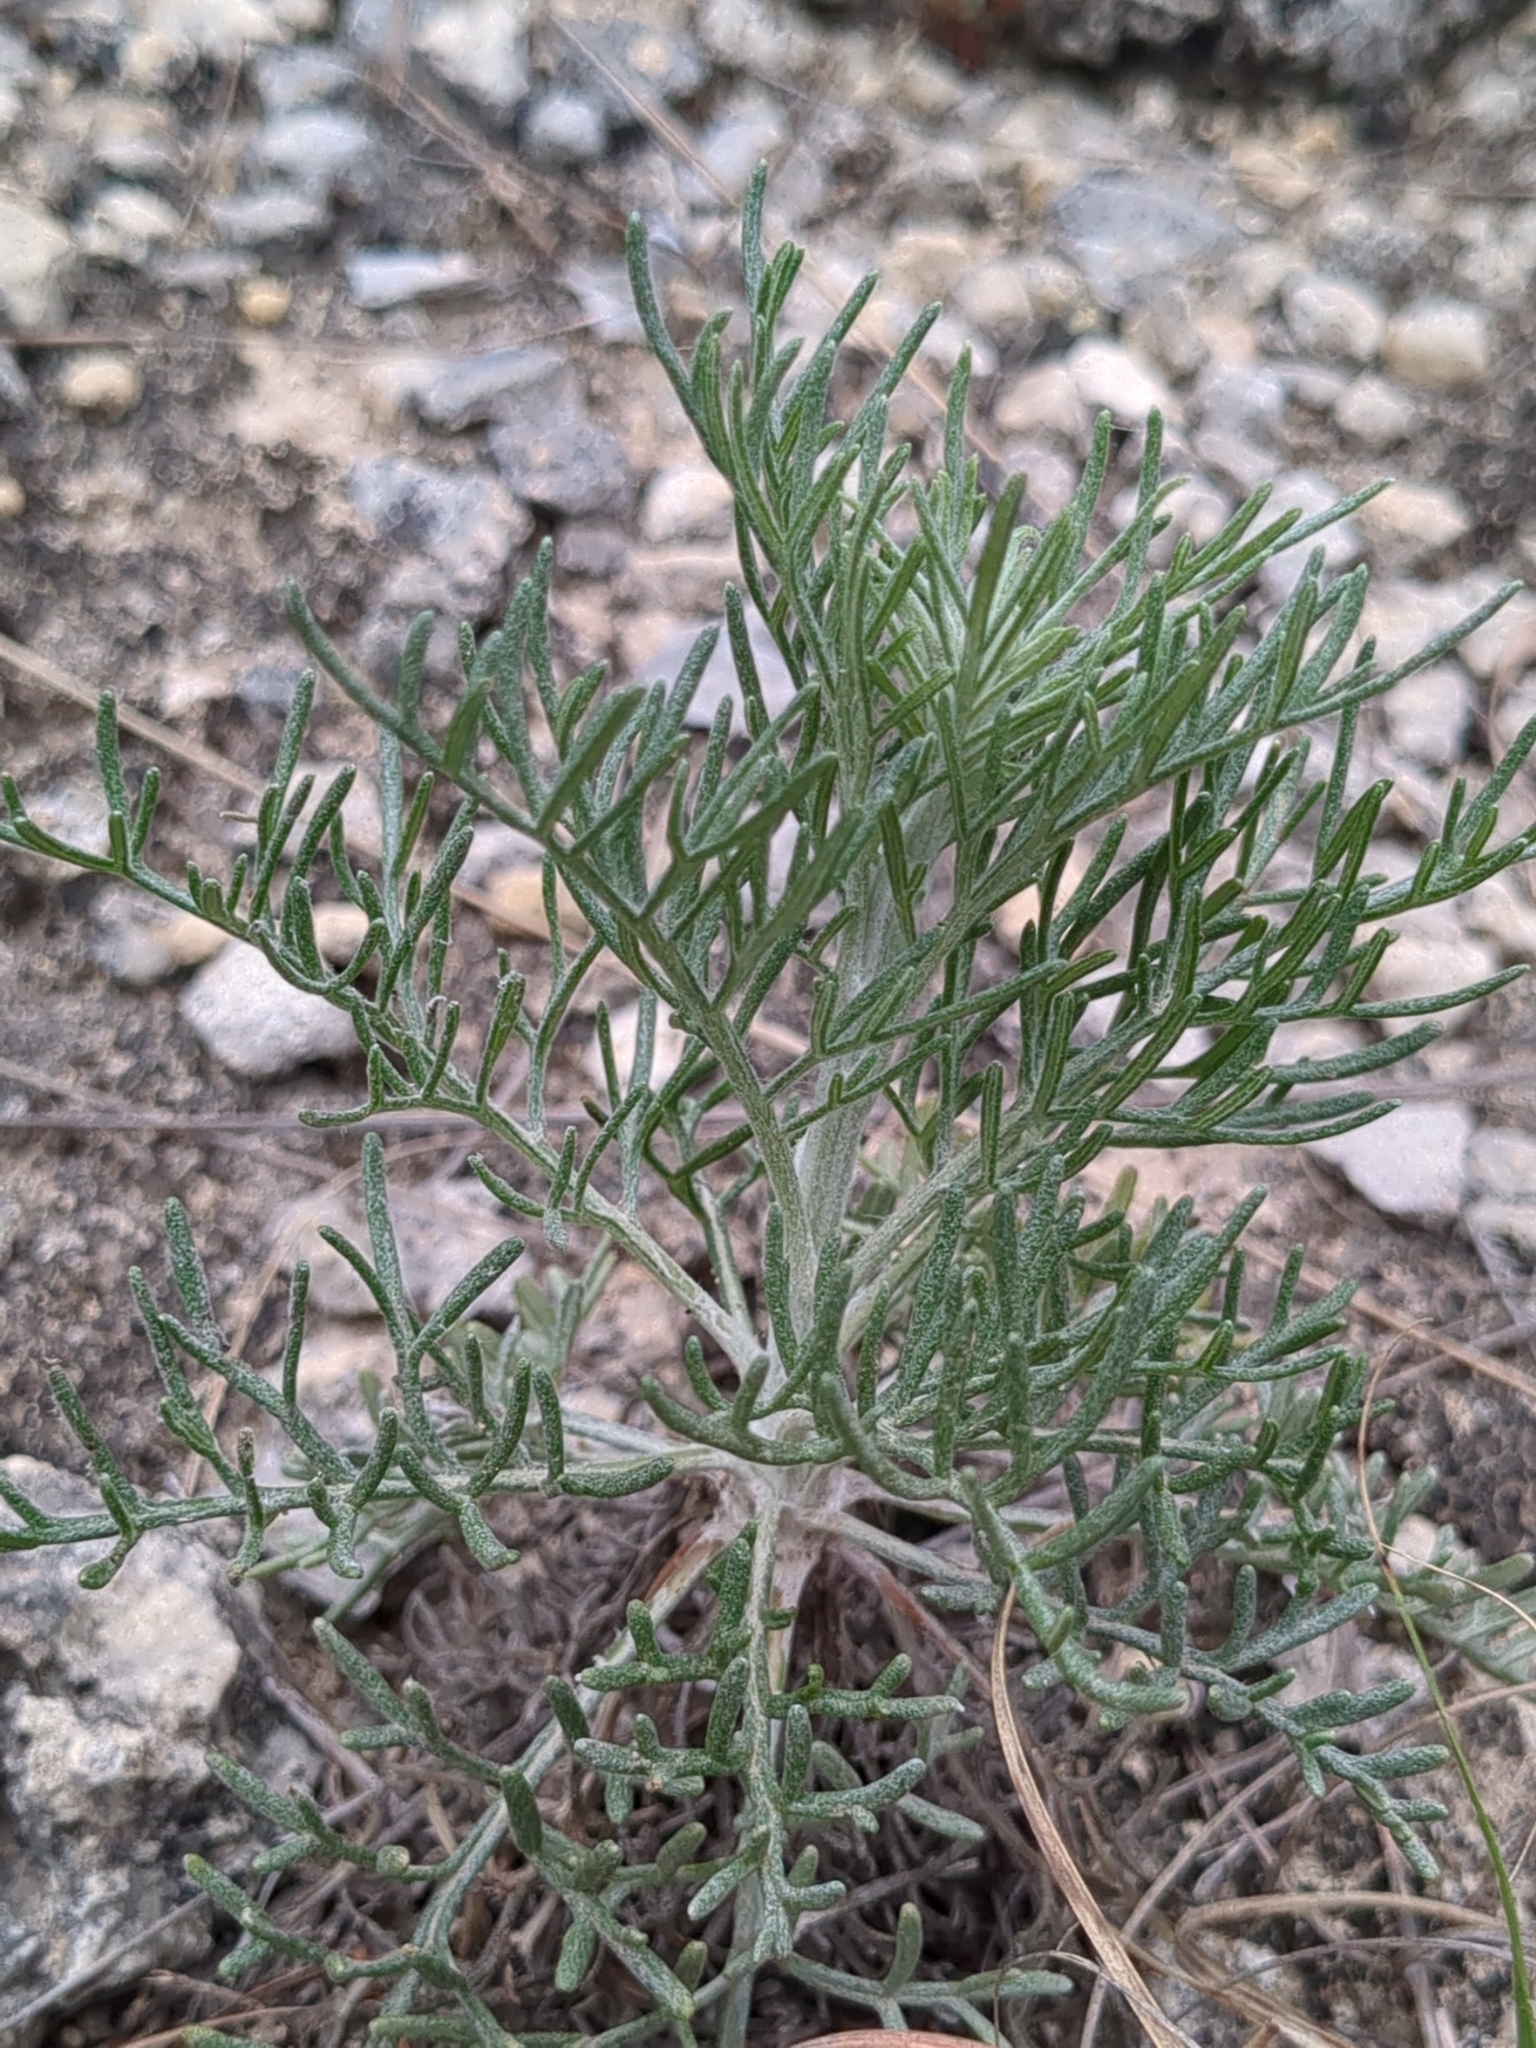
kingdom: Plantae
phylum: Tracheophyta
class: Magnoliopsida
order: Asterales
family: Asteraceae
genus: Hymenopappus
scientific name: Hymenopappus tenuifolius
